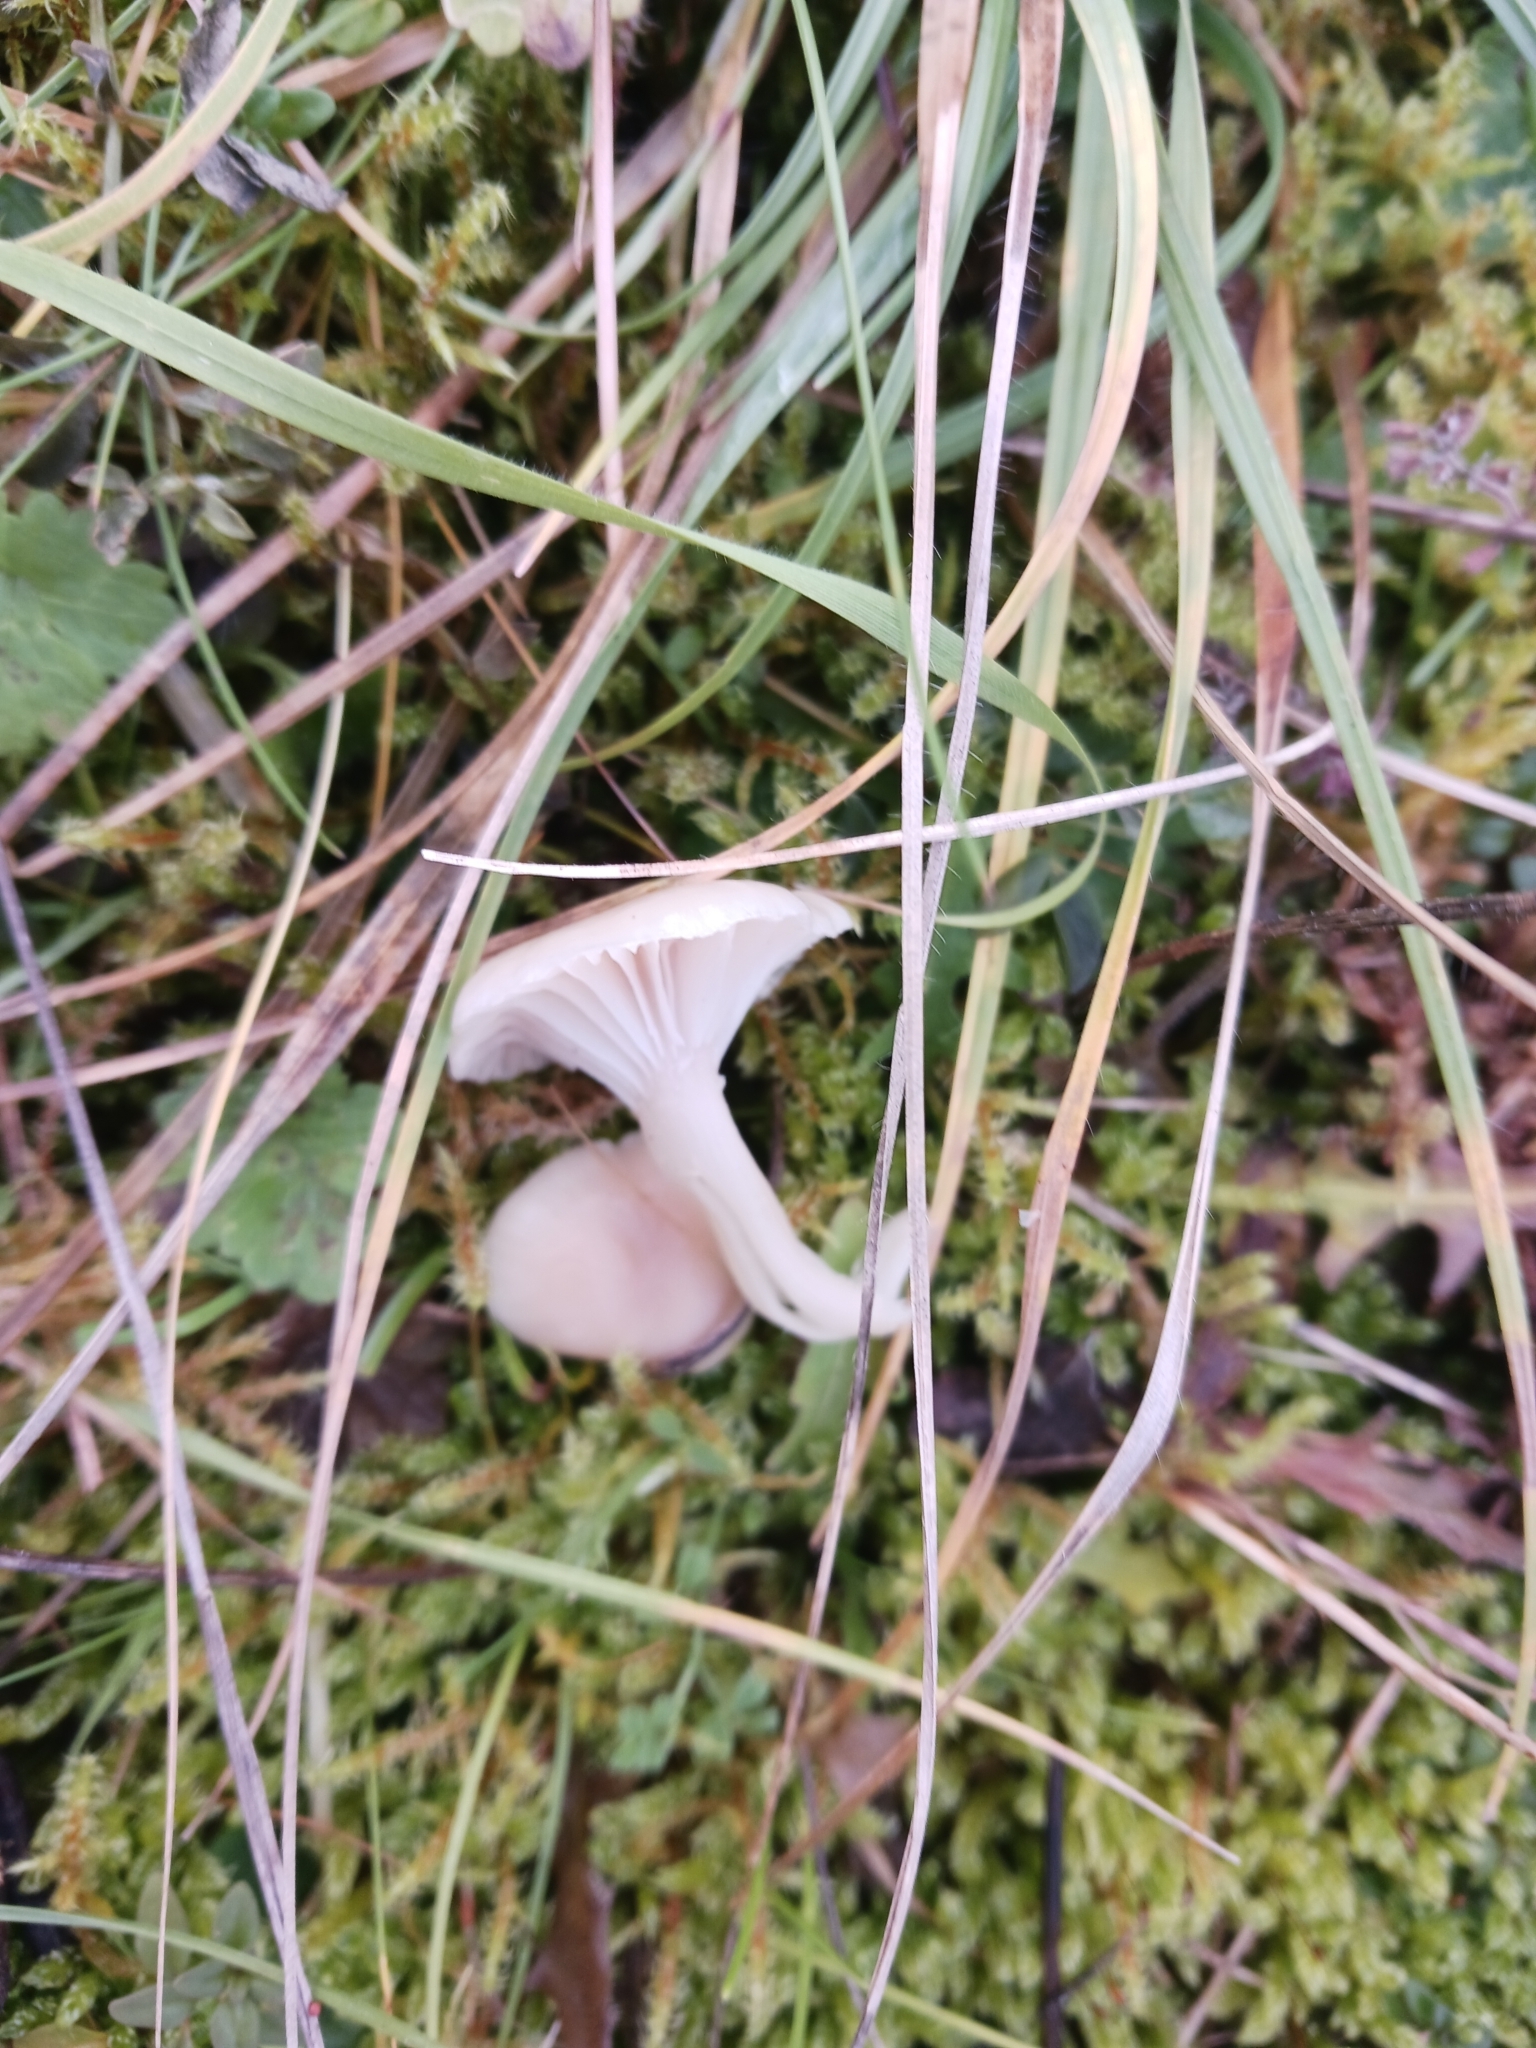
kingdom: Fungi
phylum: Basidiomycota
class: Agaricomycetes
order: Agaricales
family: Hygrophoraceae
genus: Cuphophyllus
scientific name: Cuphophyllus virgineus
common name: Snowy waxcap
